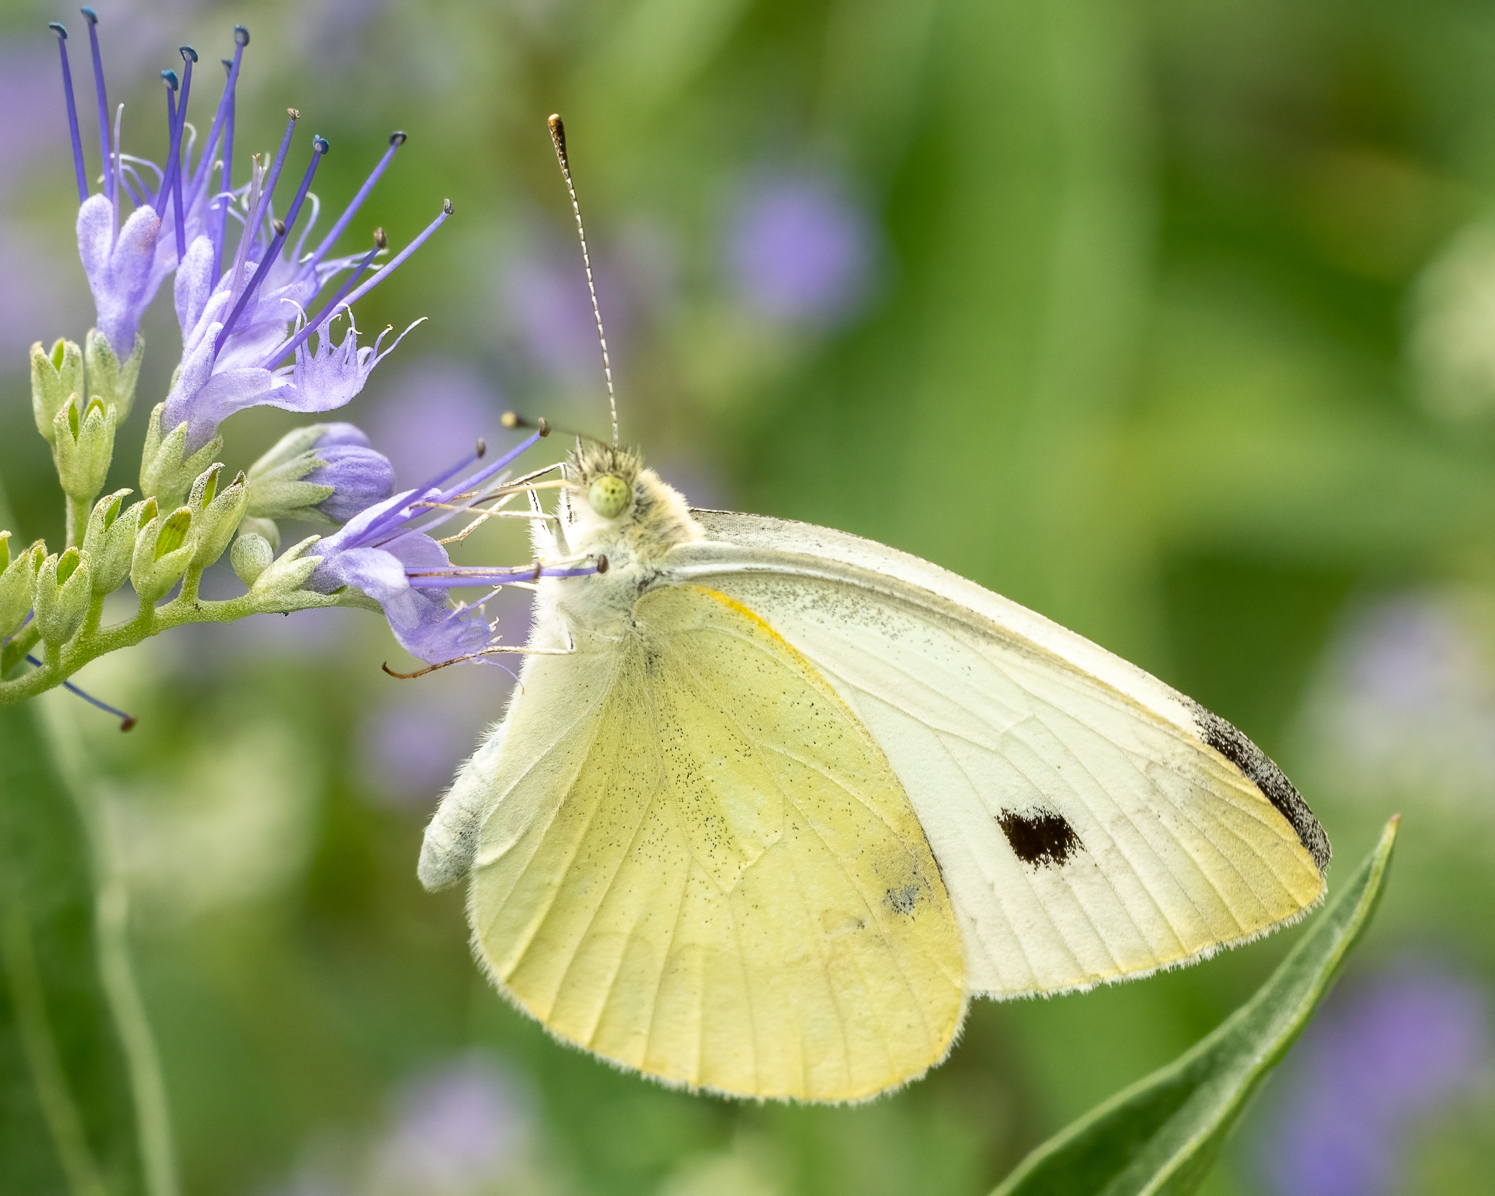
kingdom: Animalia
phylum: Arthropoda
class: Insecta
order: Lepidoptera
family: Pieridae
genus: Pieris
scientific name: Pieris rapae
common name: Small white
